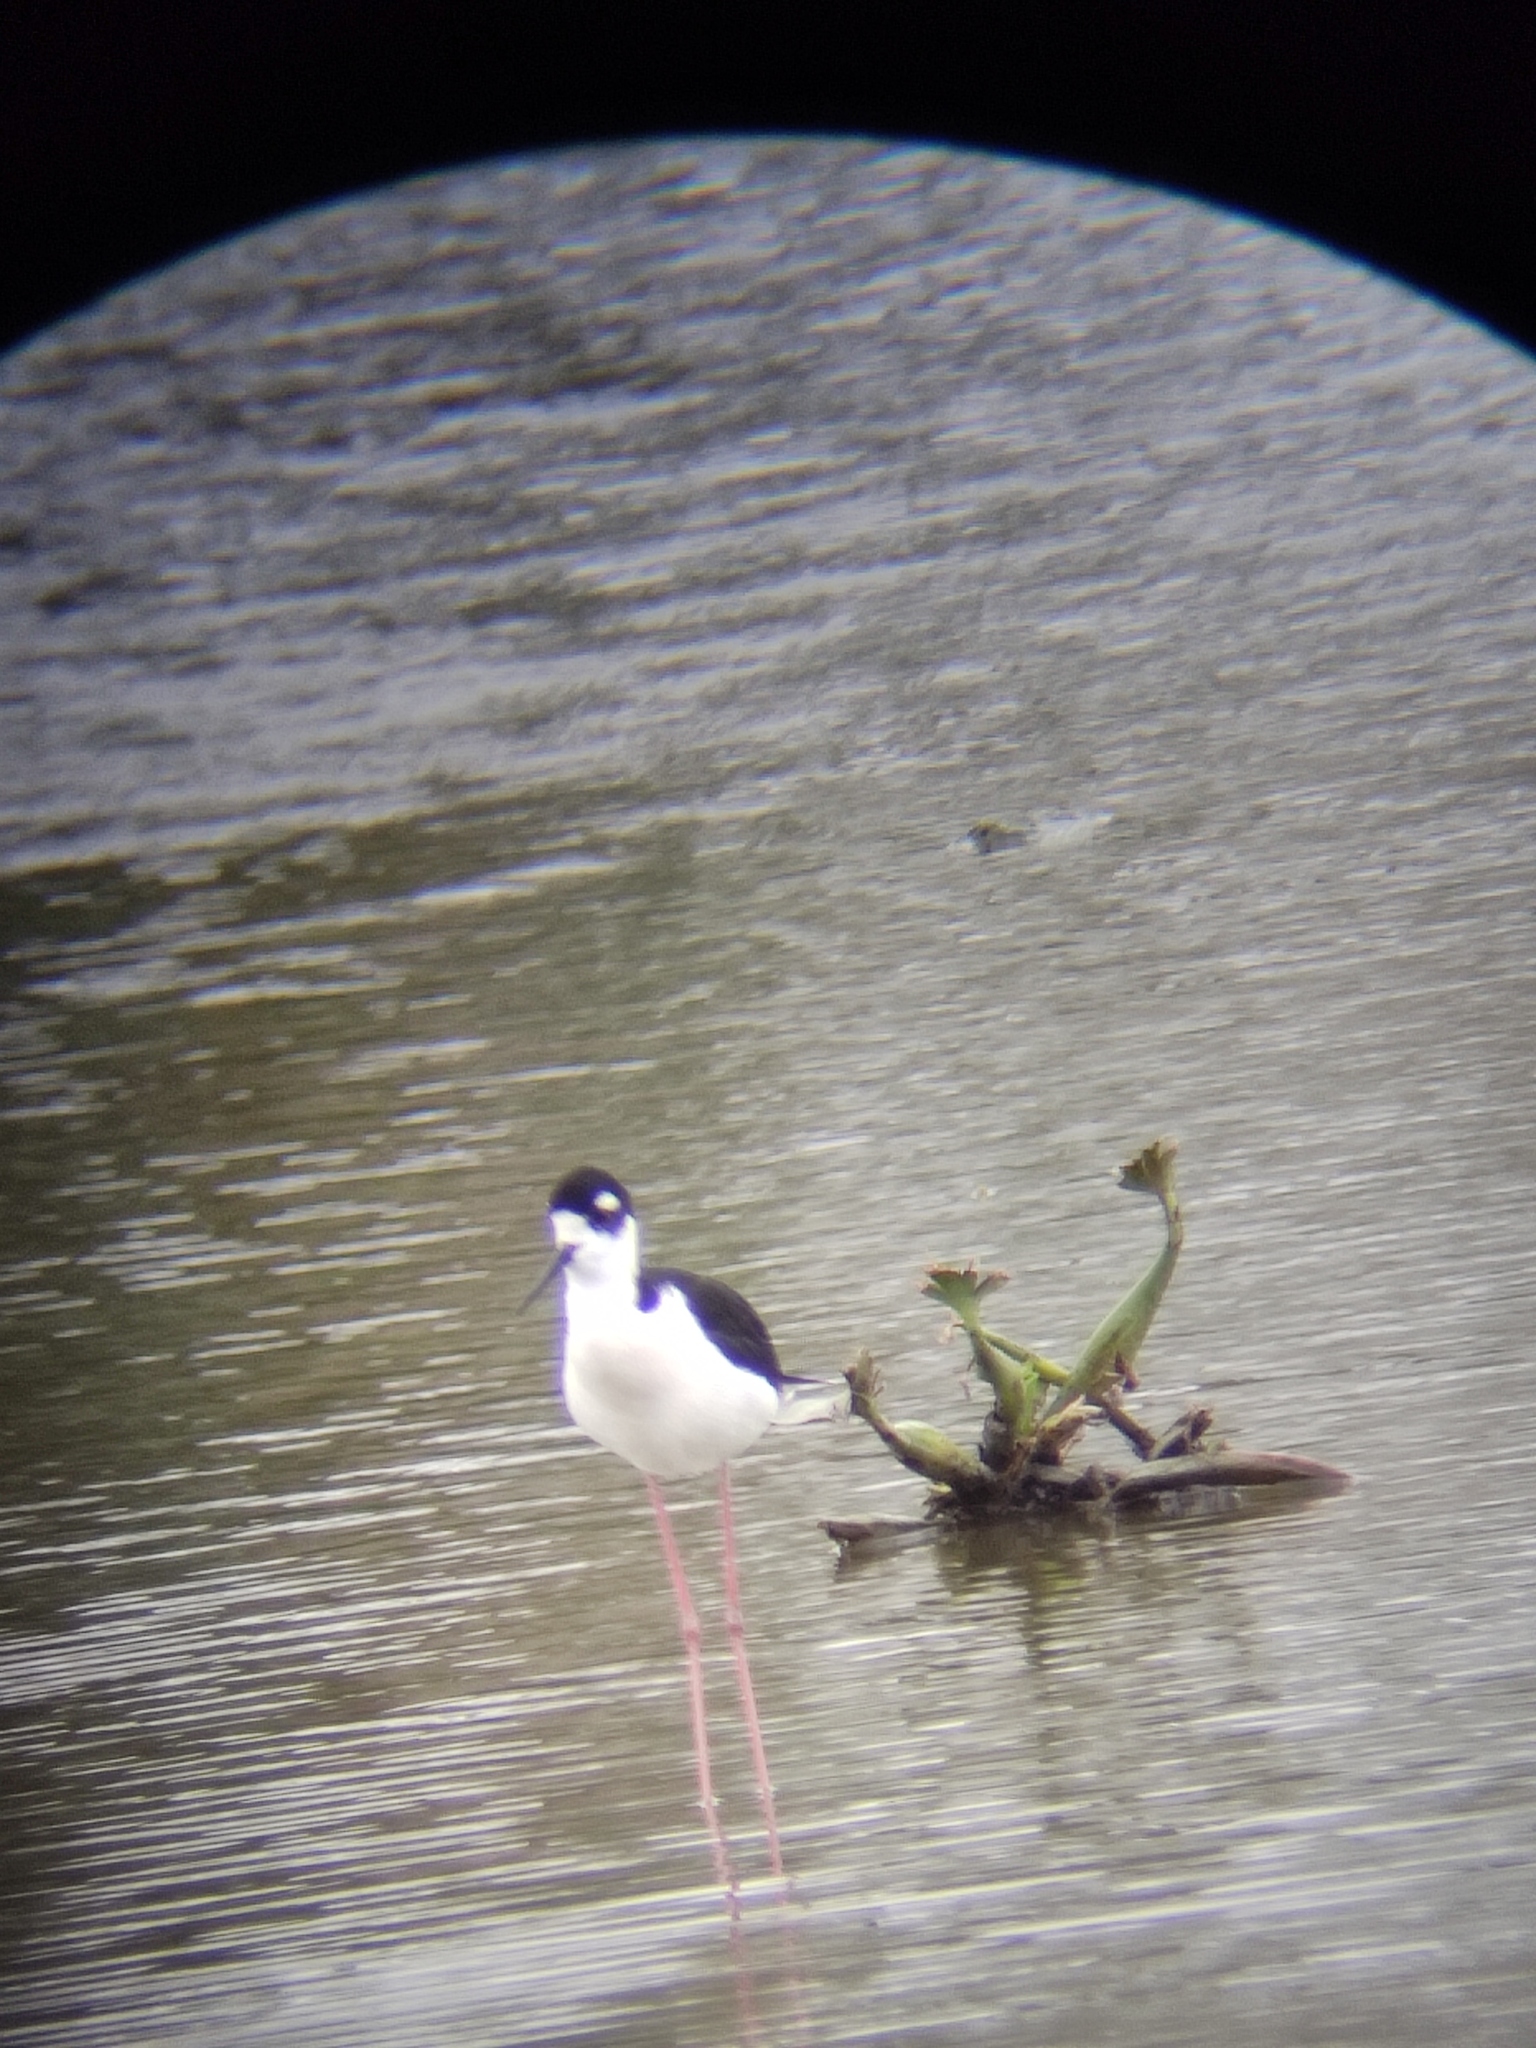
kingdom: Animalia
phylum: Chordata
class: Aves
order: Charadriiformes
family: Recurvirostridae
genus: Himantopus
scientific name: Himantopus mexicanus
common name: Black-necked stilt
